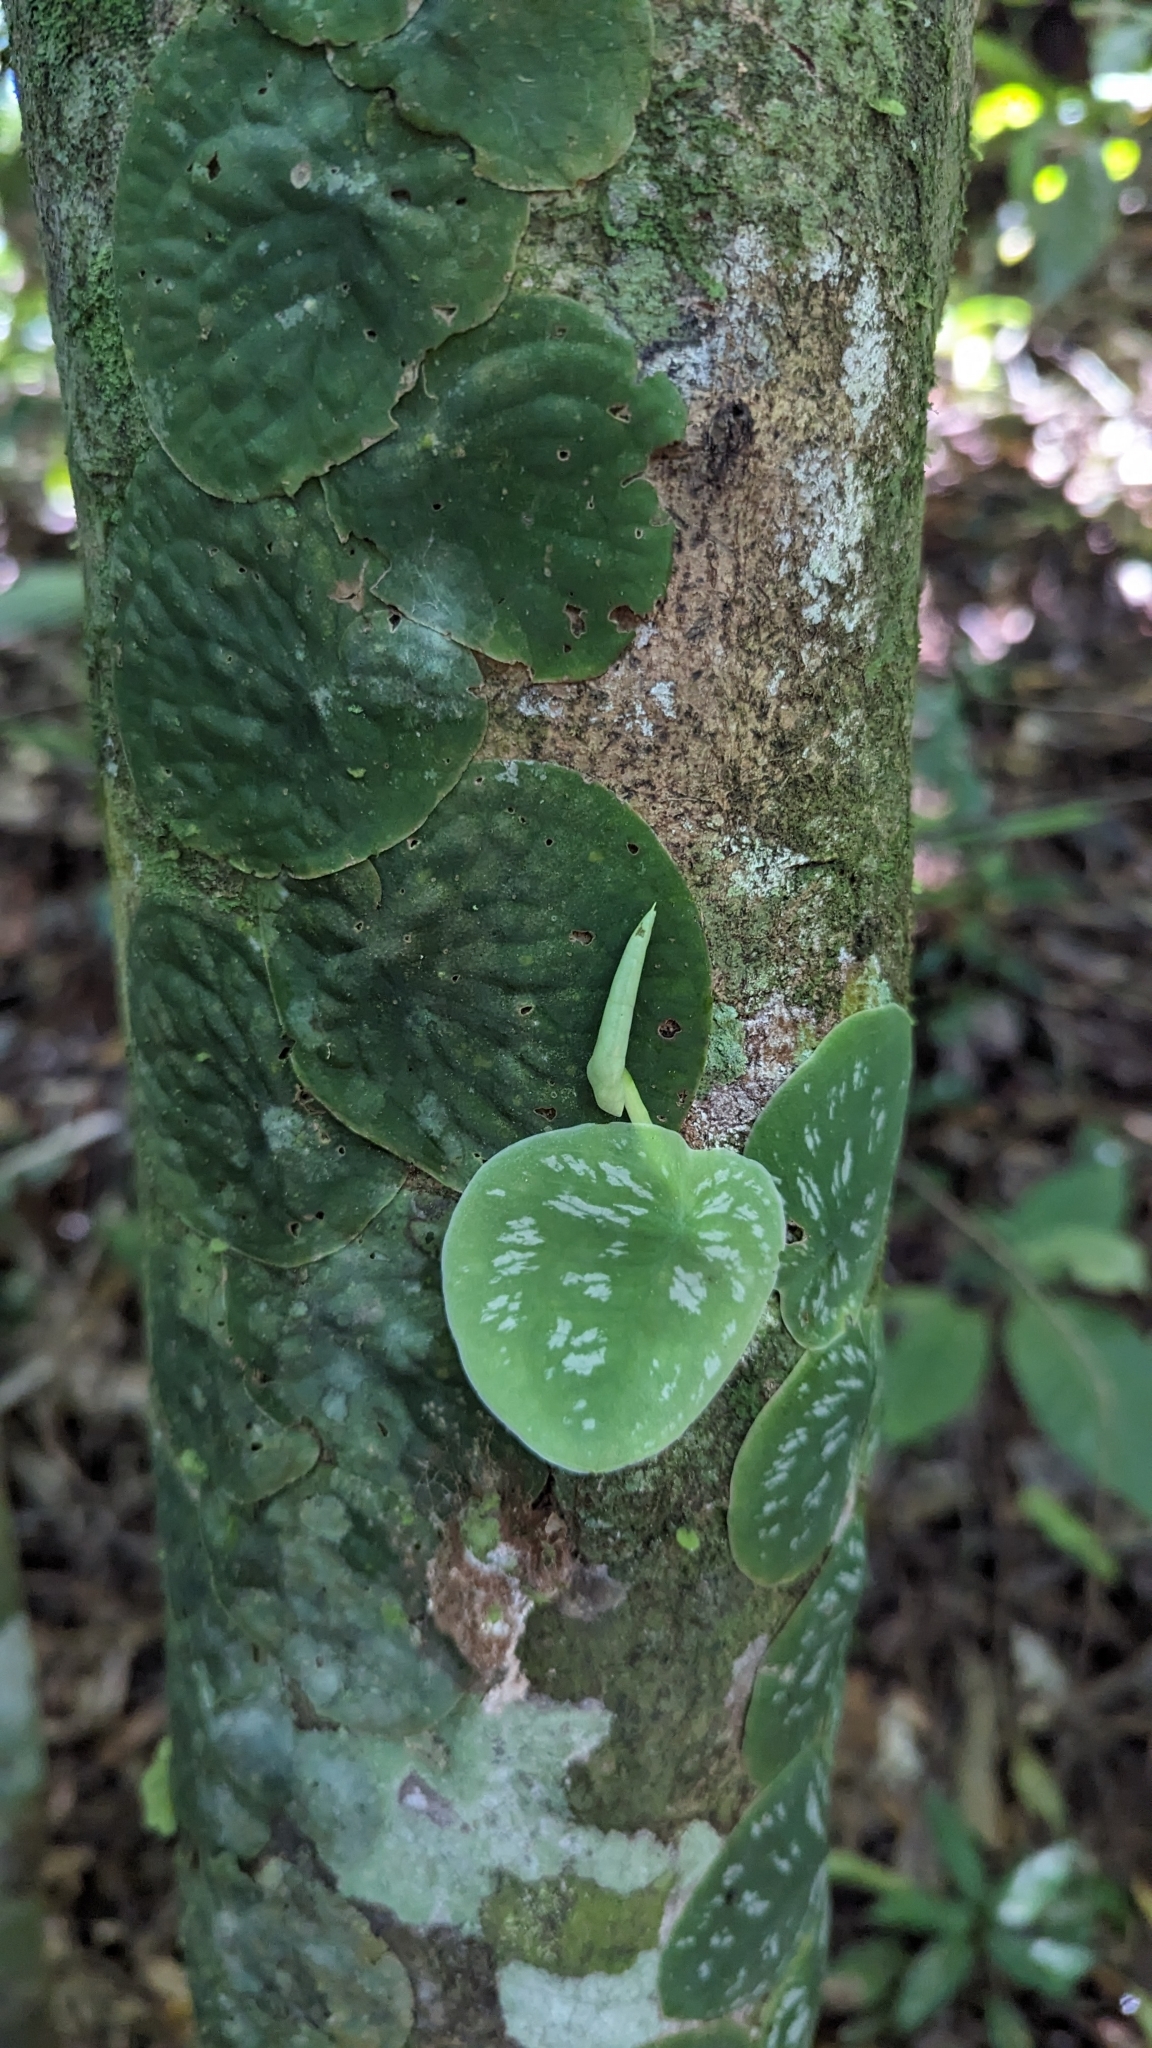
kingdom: Plantae
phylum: Tracheophyta
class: Liliopsida
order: Alismatales
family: Araceae
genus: Monstera
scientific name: Monstera tuberculata
